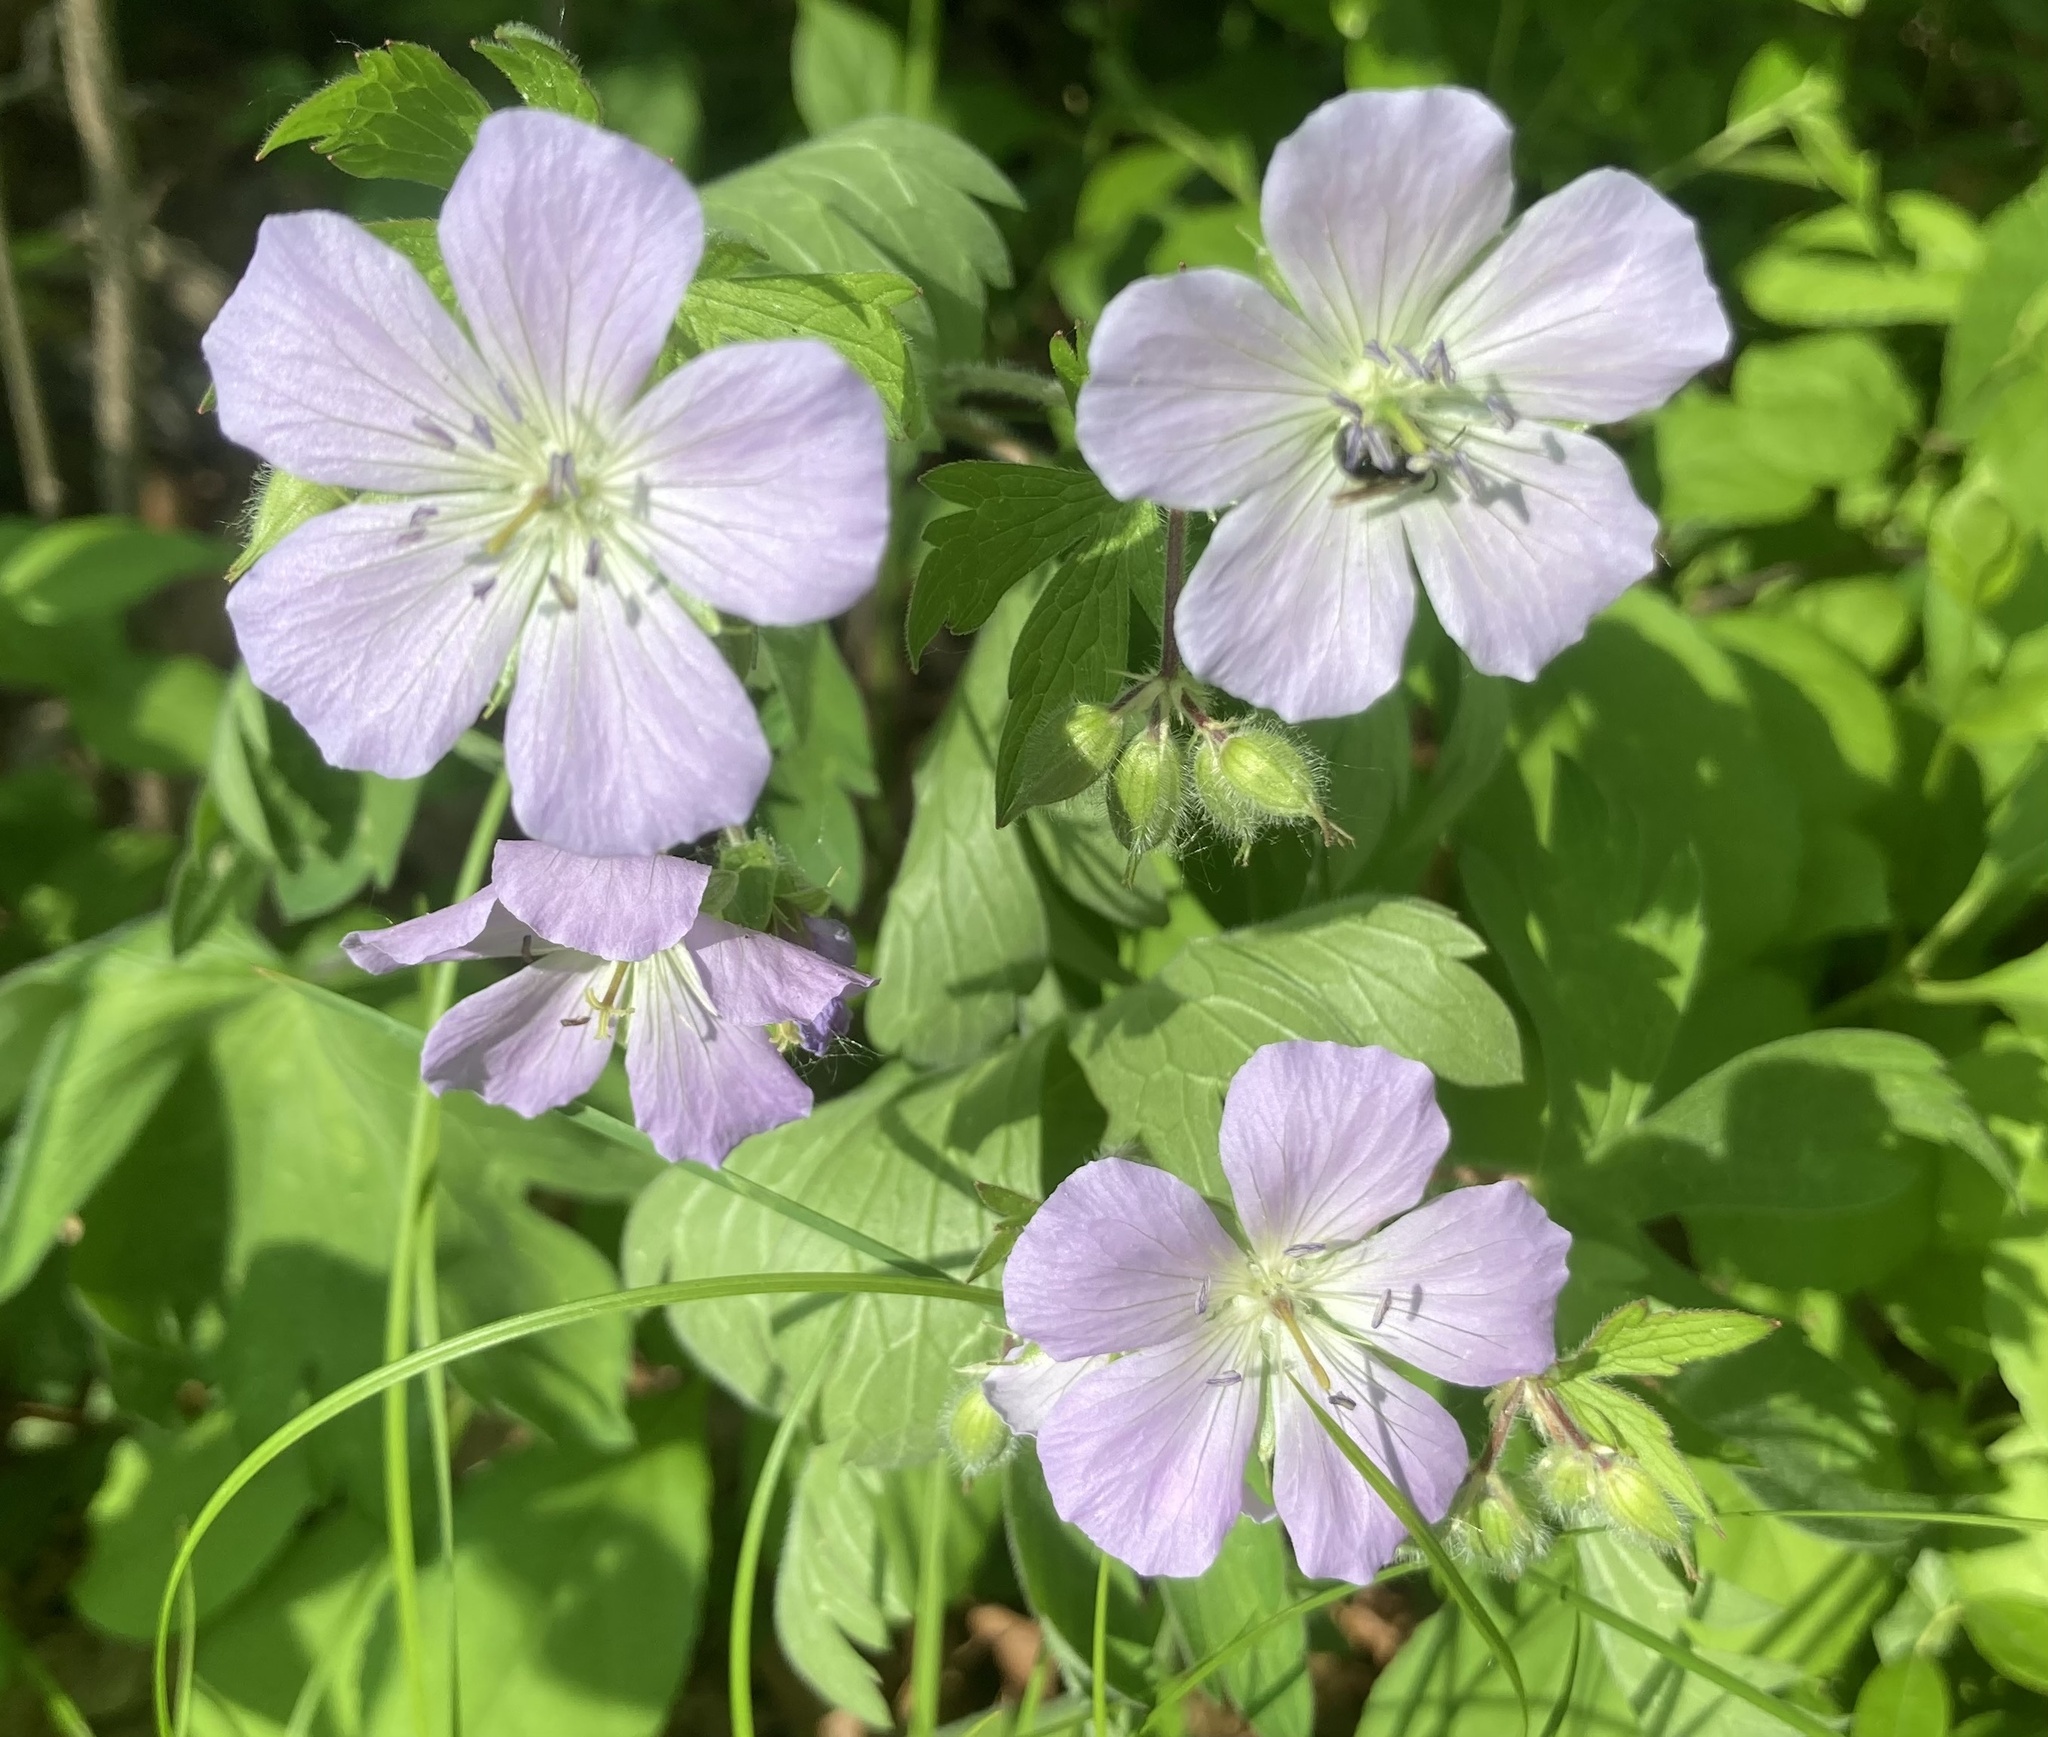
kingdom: Plantae
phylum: Tracheophyta
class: Magnoliopsida
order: Geraniales
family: Geraniaceae
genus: Geranium
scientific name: Geranium maculatum
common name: Spotted geranium
